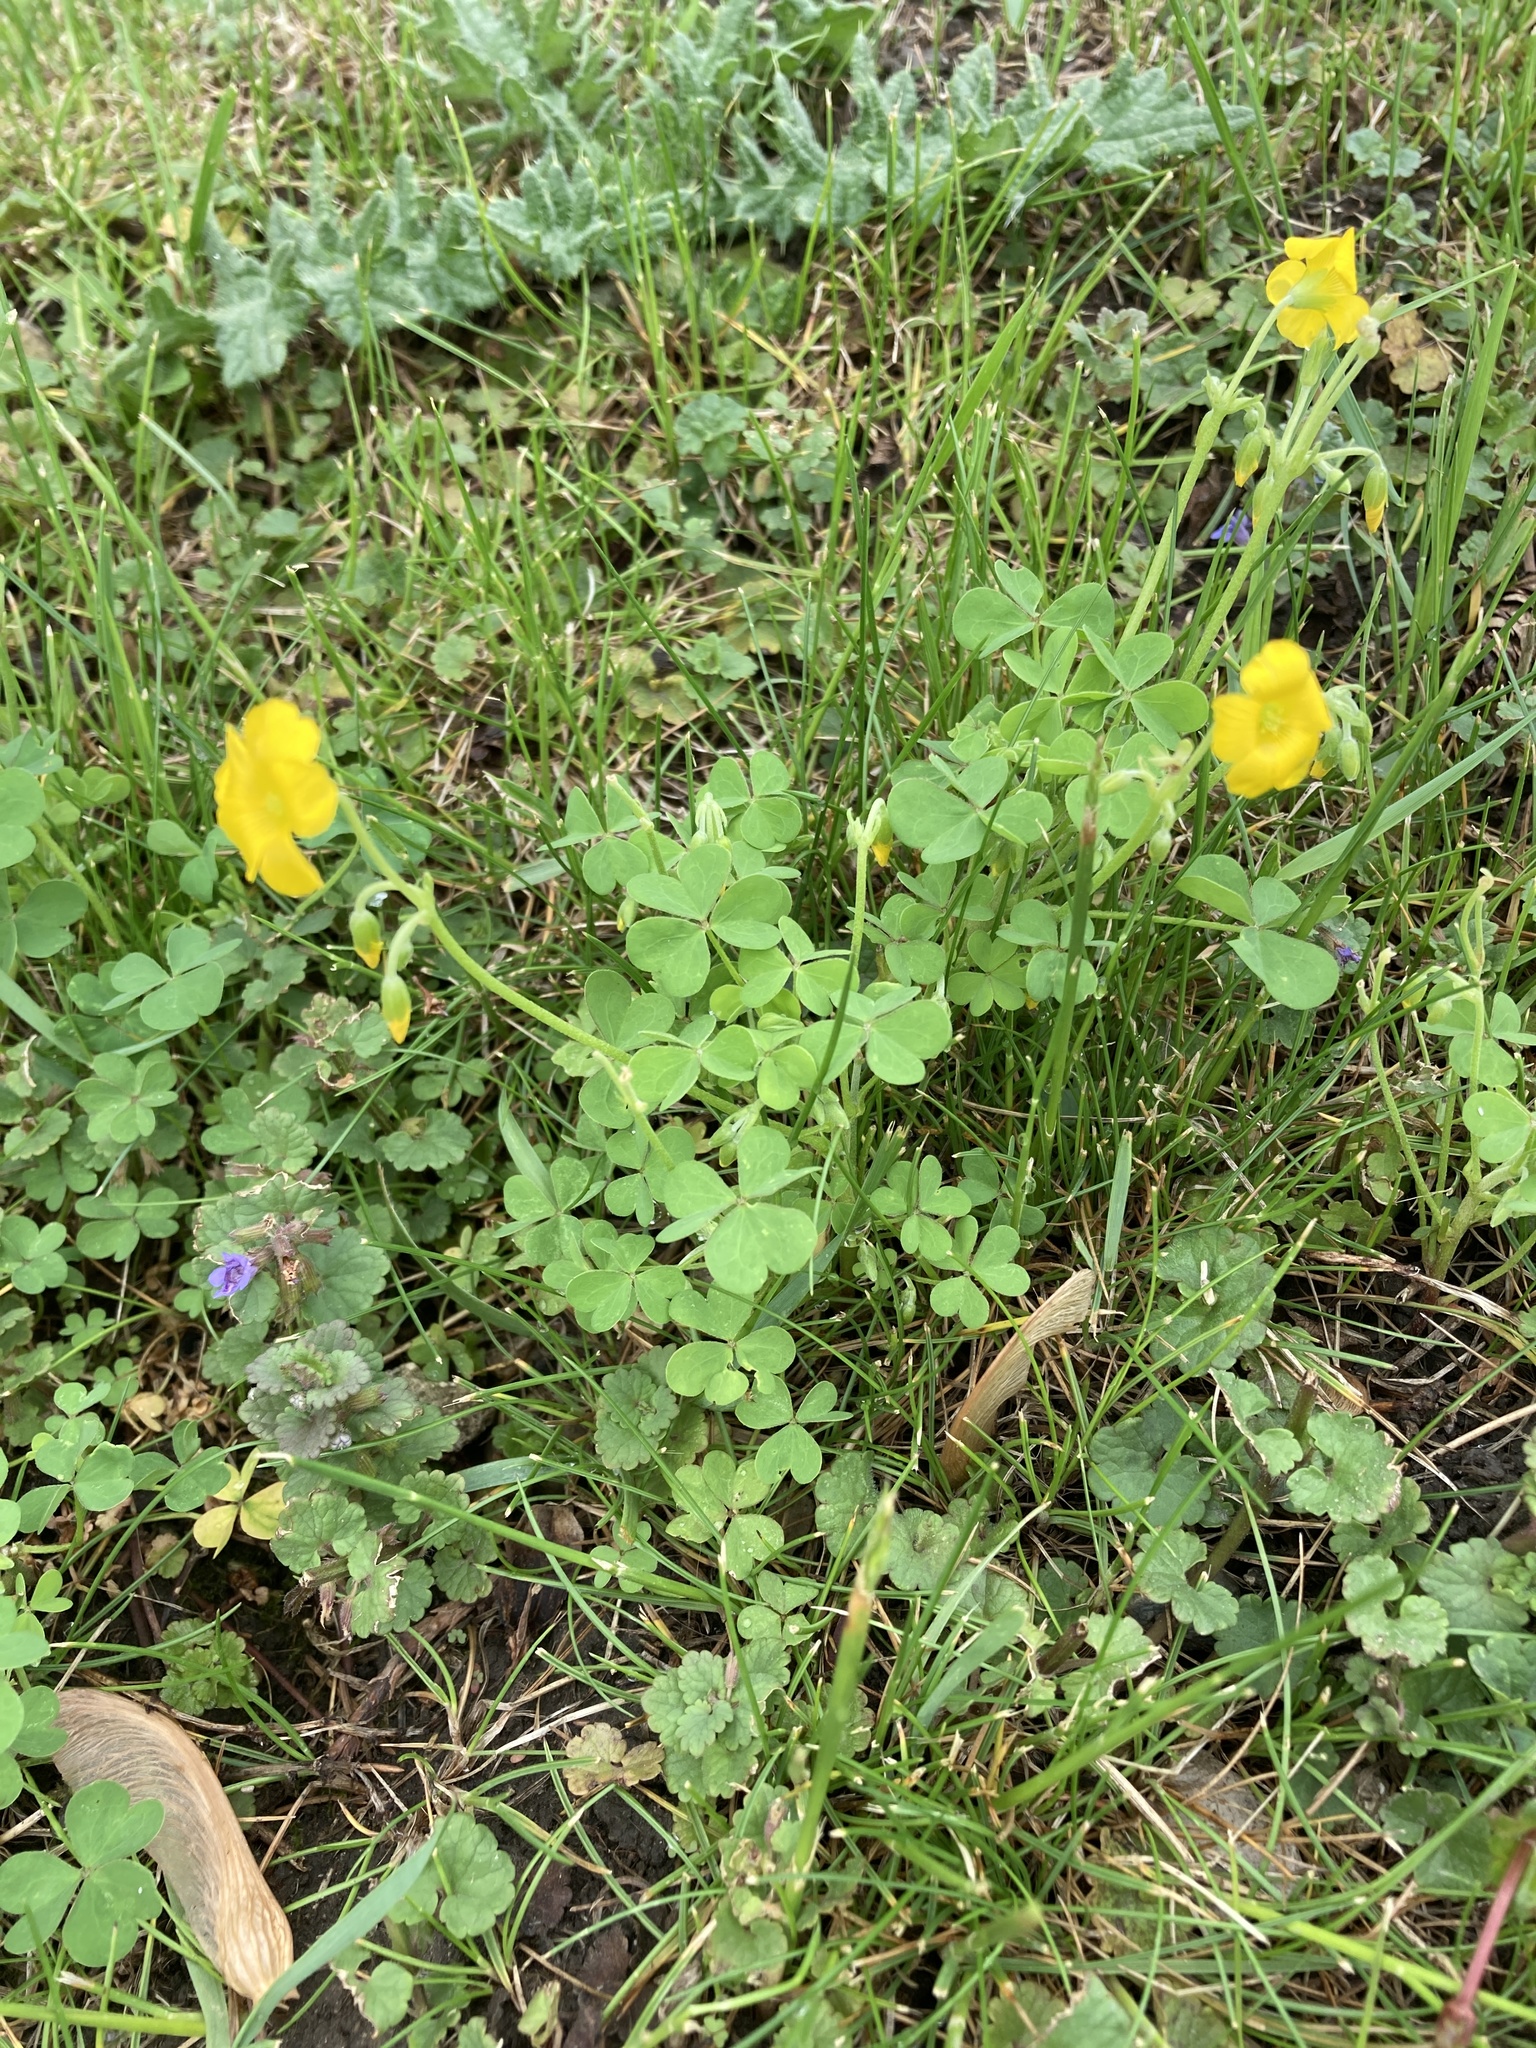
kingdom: Plantae
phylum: Tracheophyta
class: Magnoliopsida
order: Oxalidales
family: Oxalidaceae
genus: Oxalis
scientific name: Oxalis dillenii
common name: Sussex yellow-sorrel
